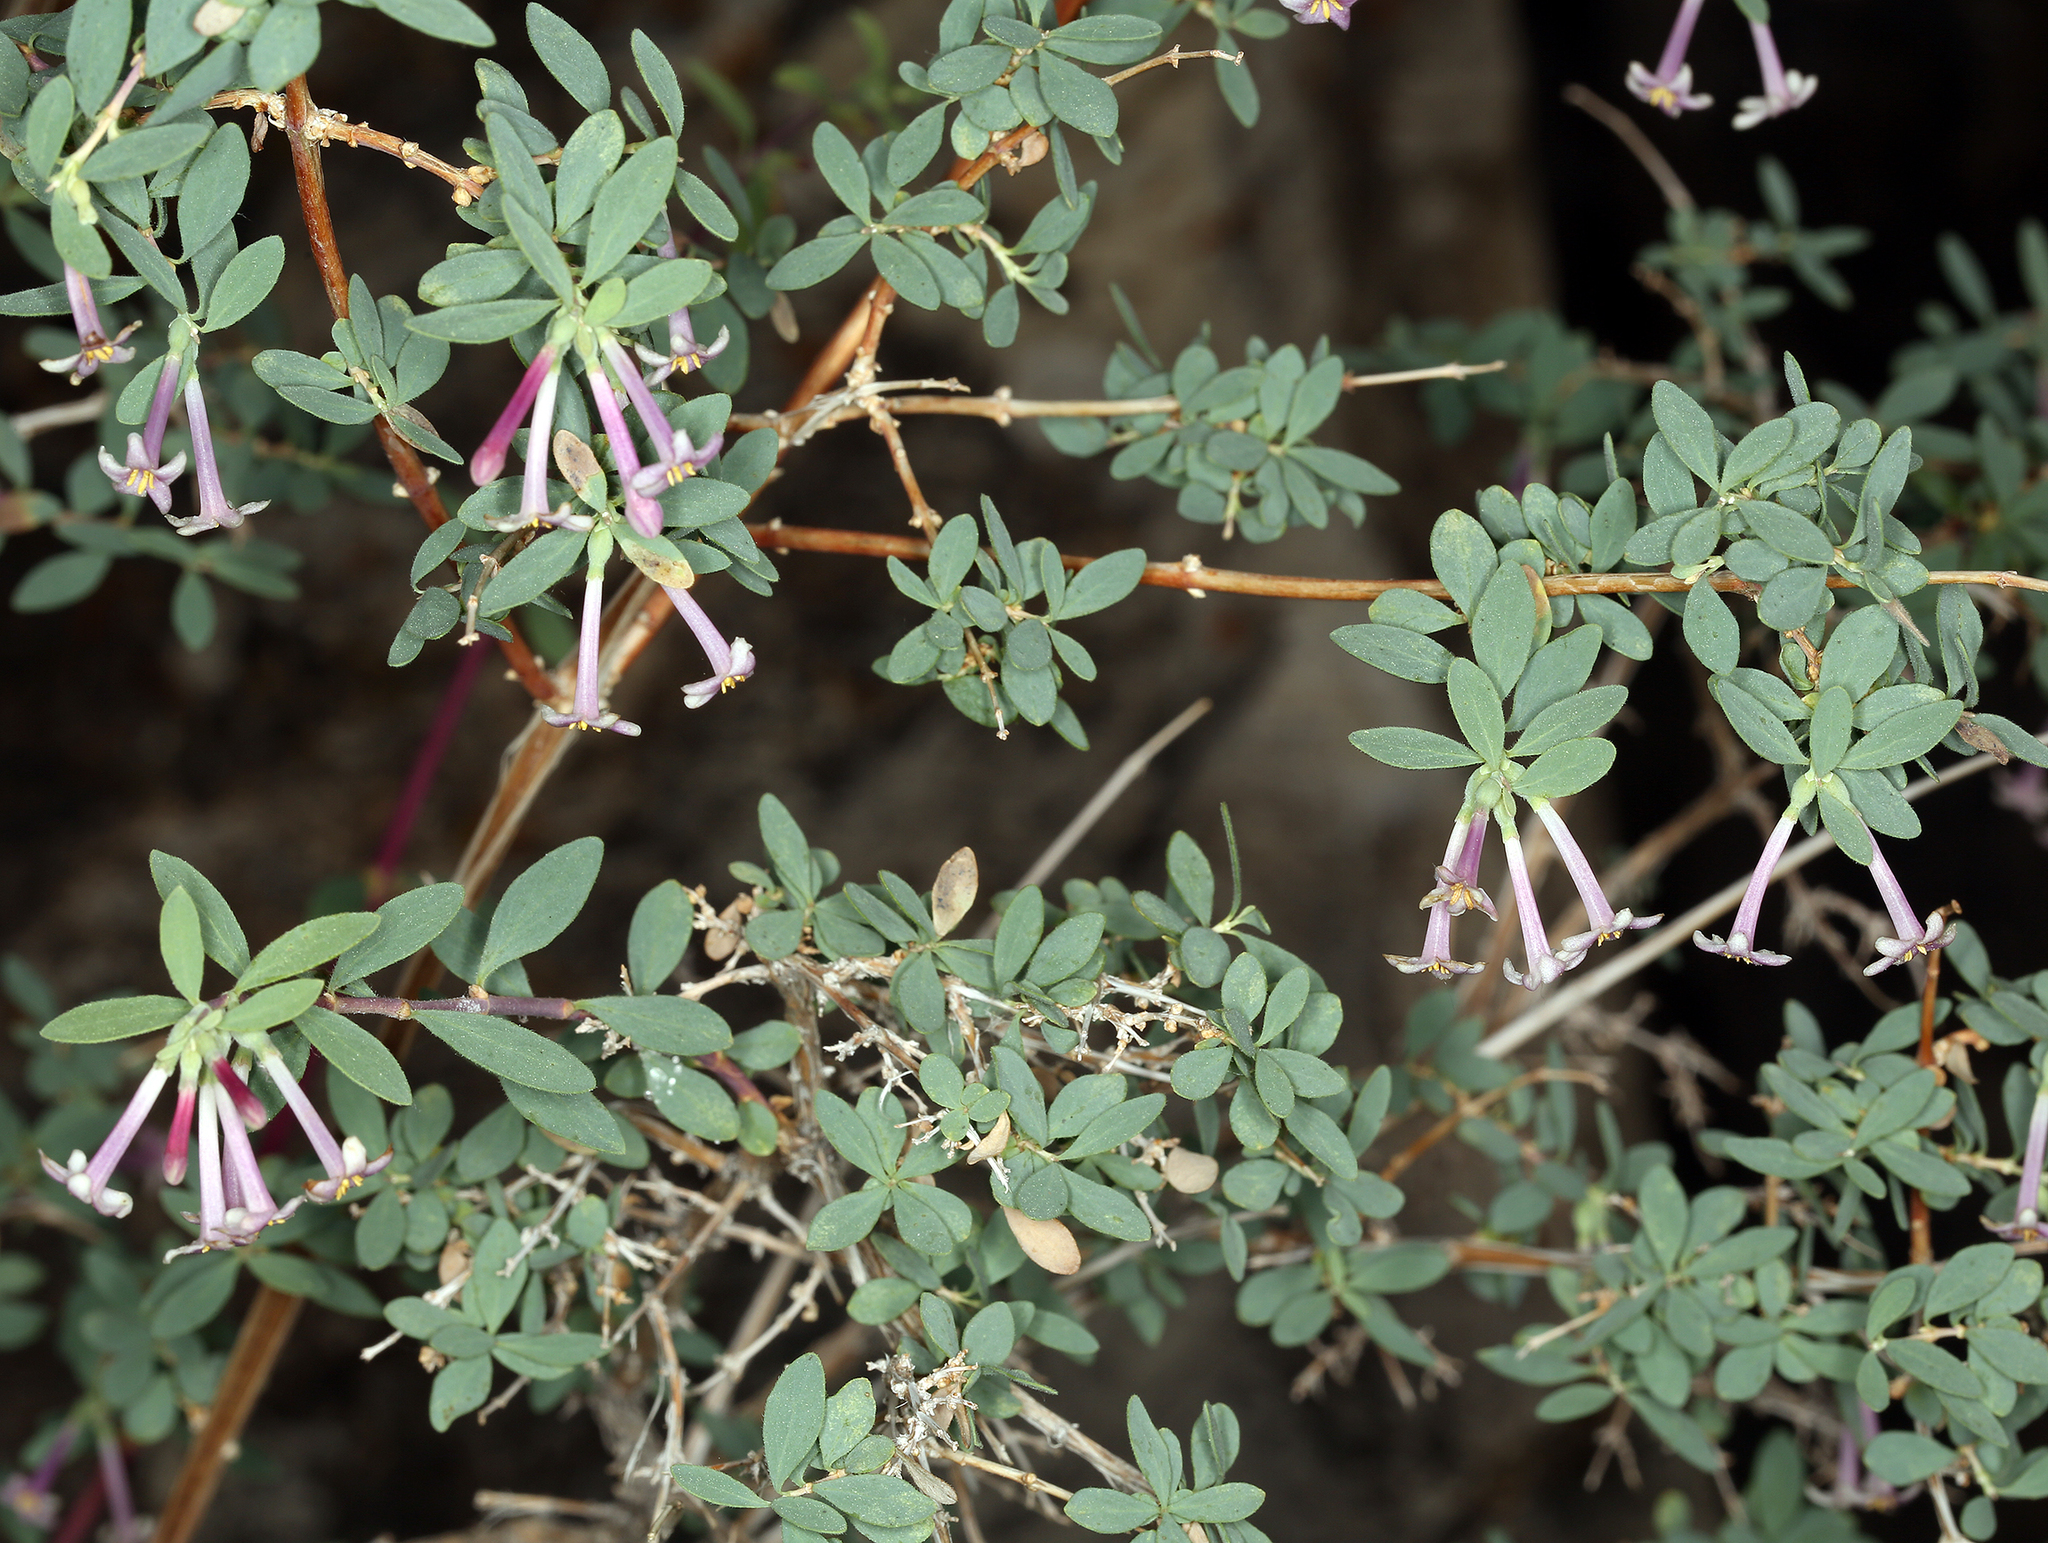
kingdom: Plantae
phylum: Tracheophyta
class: Magnoliopsida
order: Dipsacales
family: Caprifoliaceae
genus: Symphoricarpos
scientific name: Symphoricarpos longiflorus
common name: Fragrant snowberry
